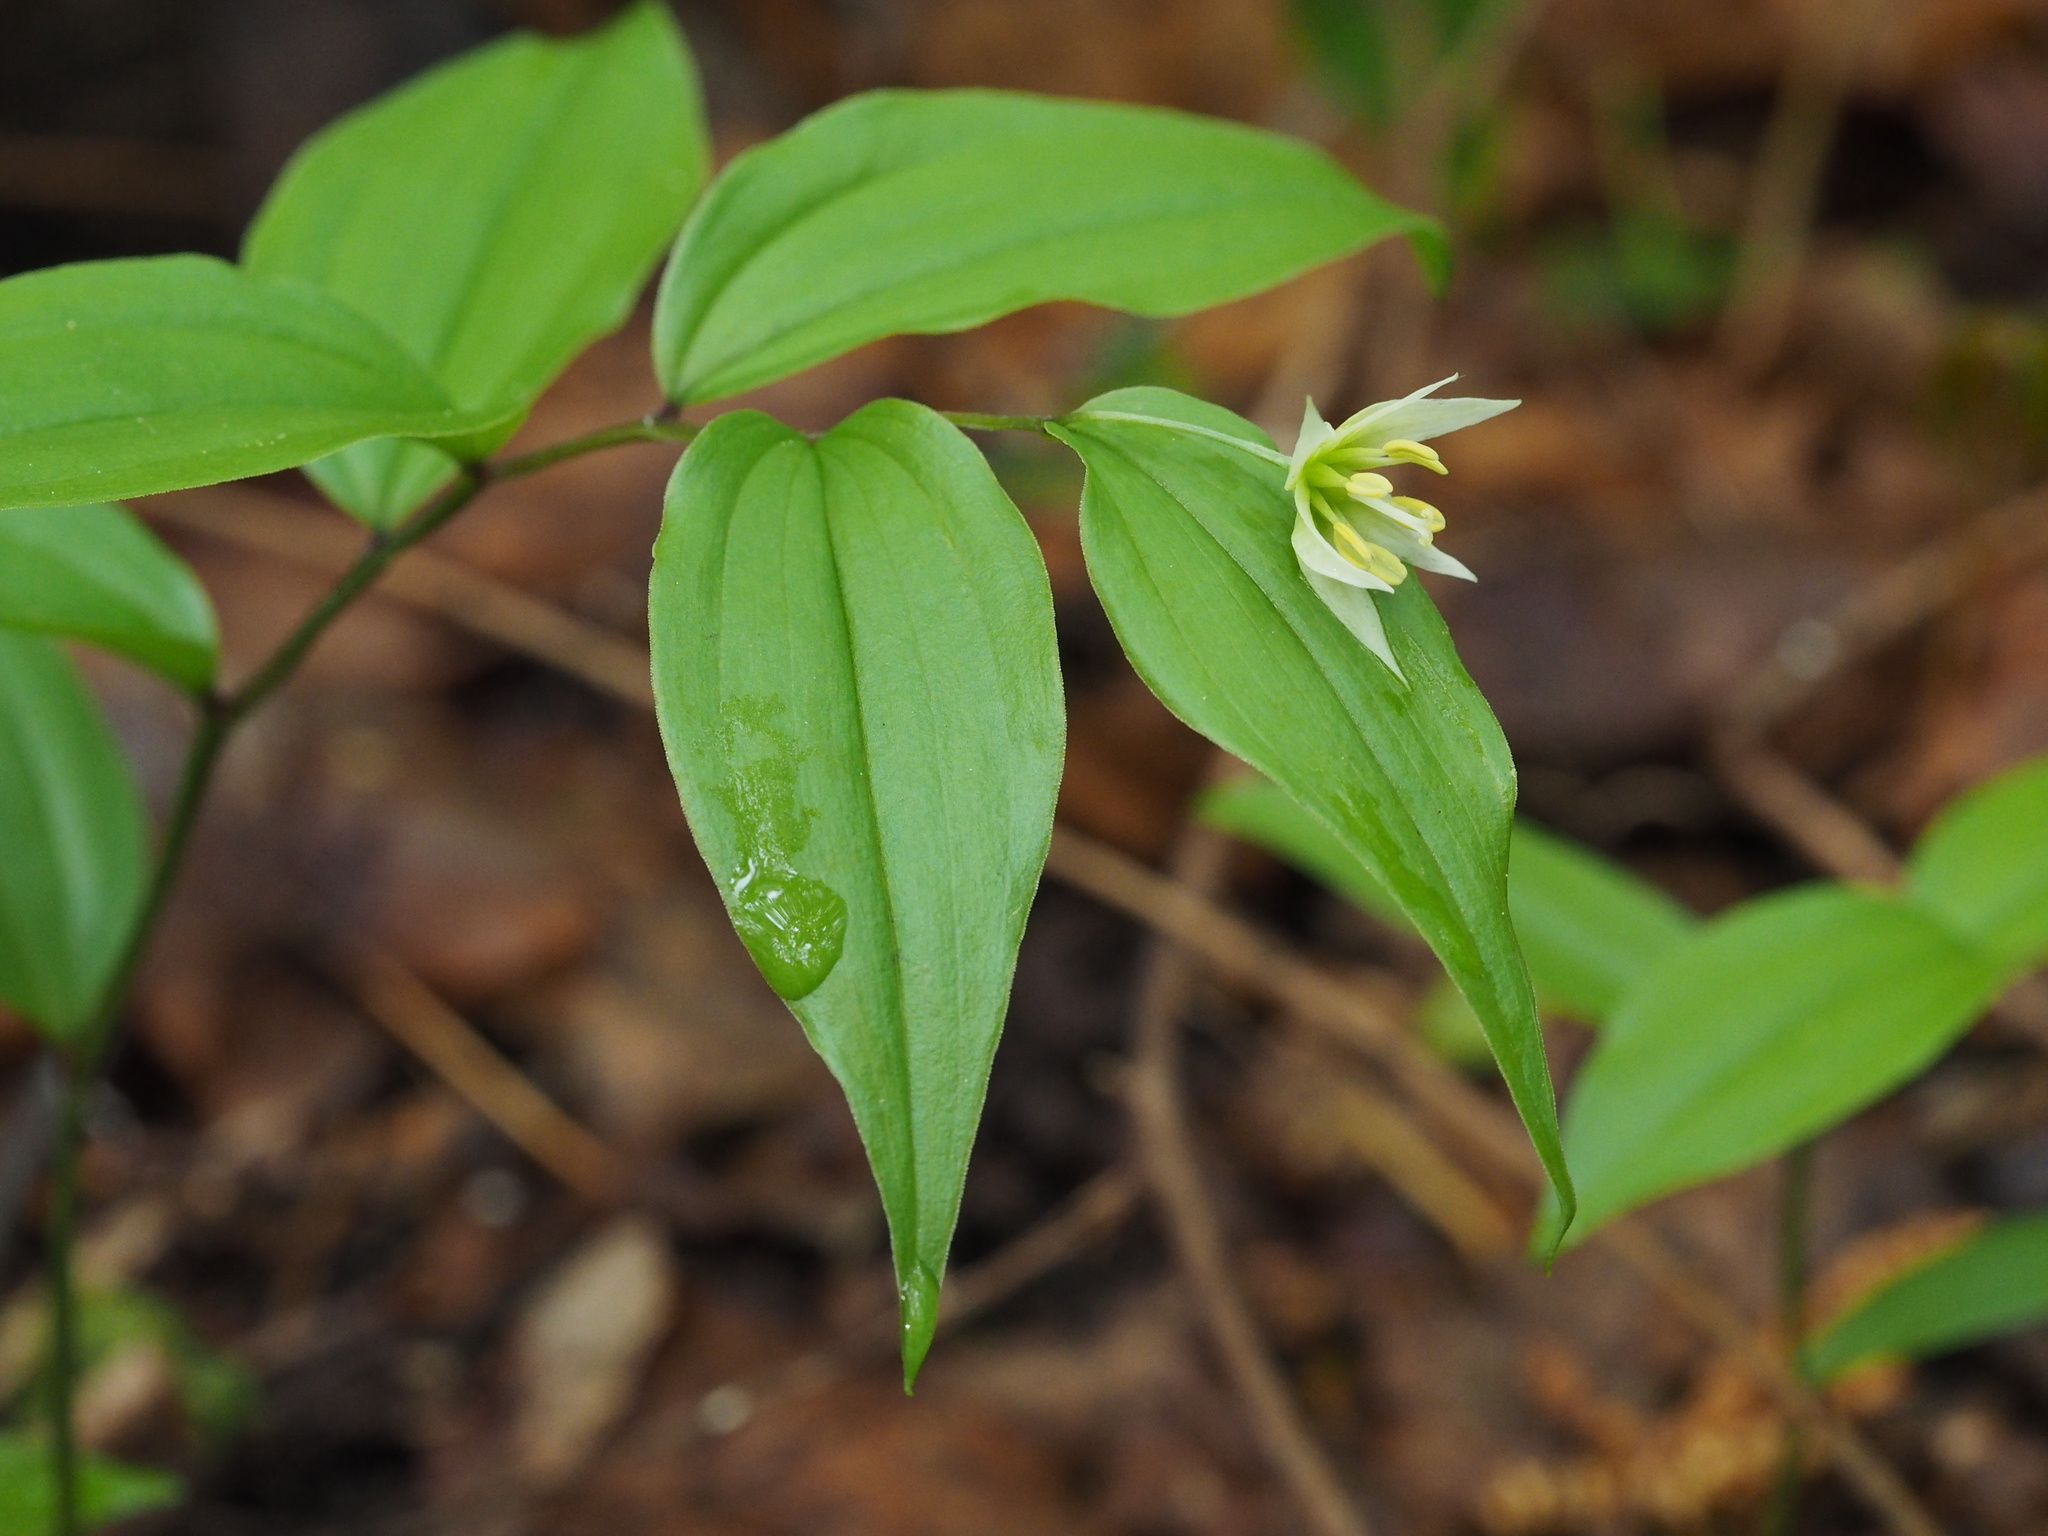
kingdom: Plantae
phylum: Tracheophyta
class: Liliopsida
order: Liliales
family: Colchicaceae
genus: Disporum
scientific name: Disporum smilacinum
